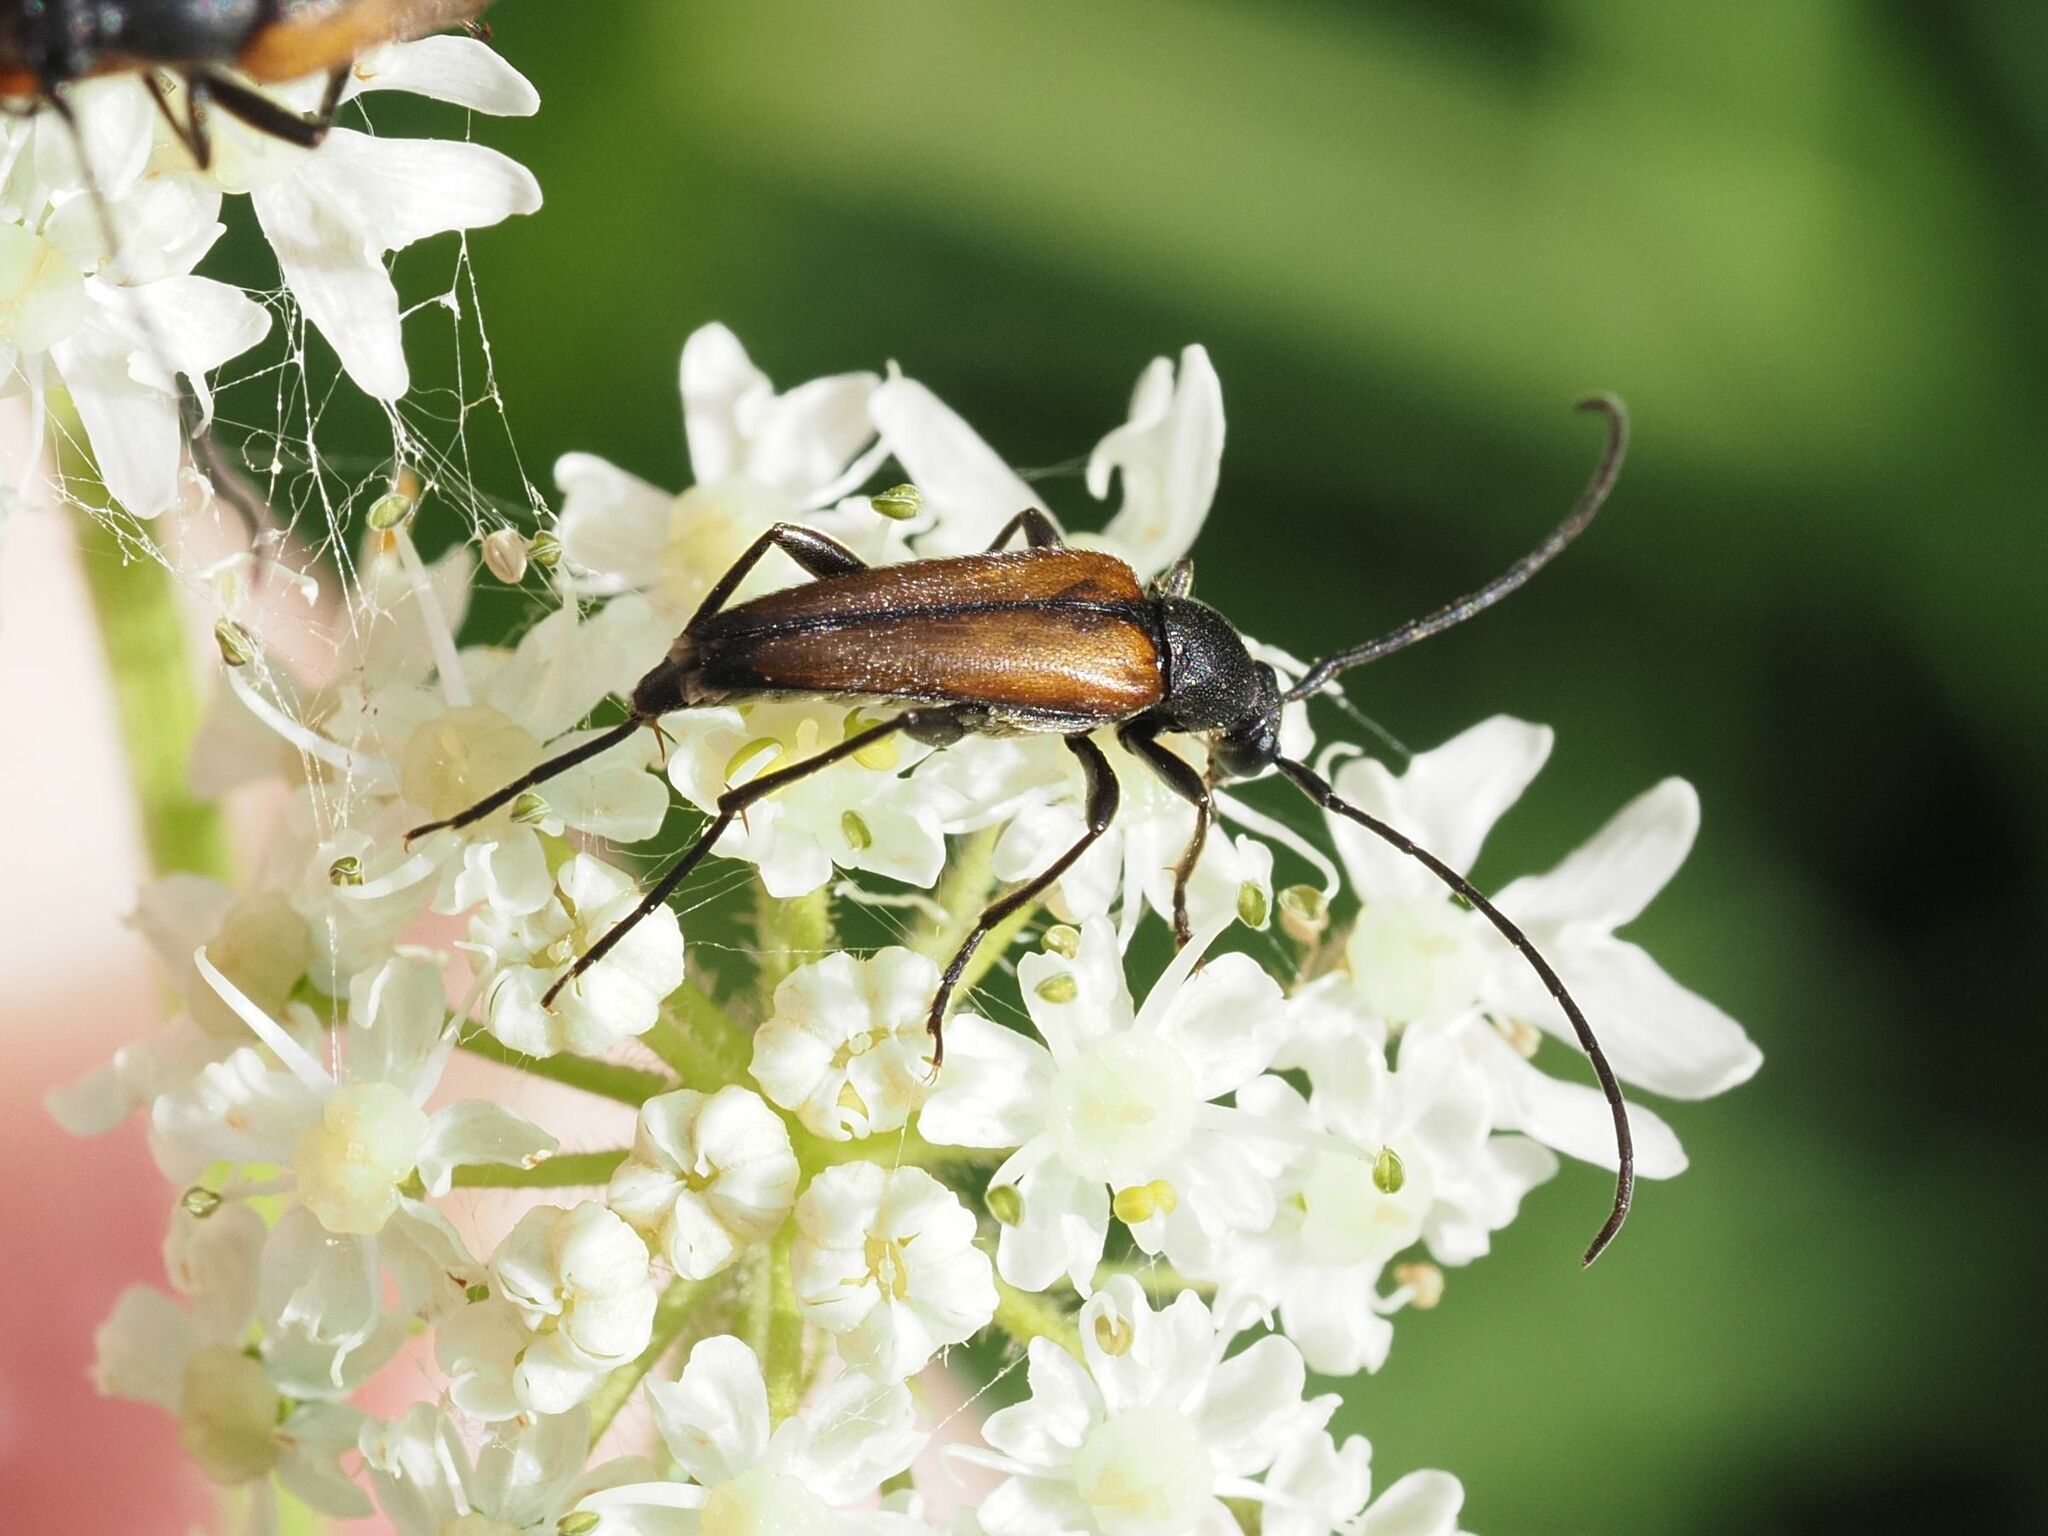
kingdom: Animalia
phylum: Arthropoda
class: Insecta
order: Coleoptera
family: Cerambycidae
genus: Stenurella
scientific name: Stenurella melanura
